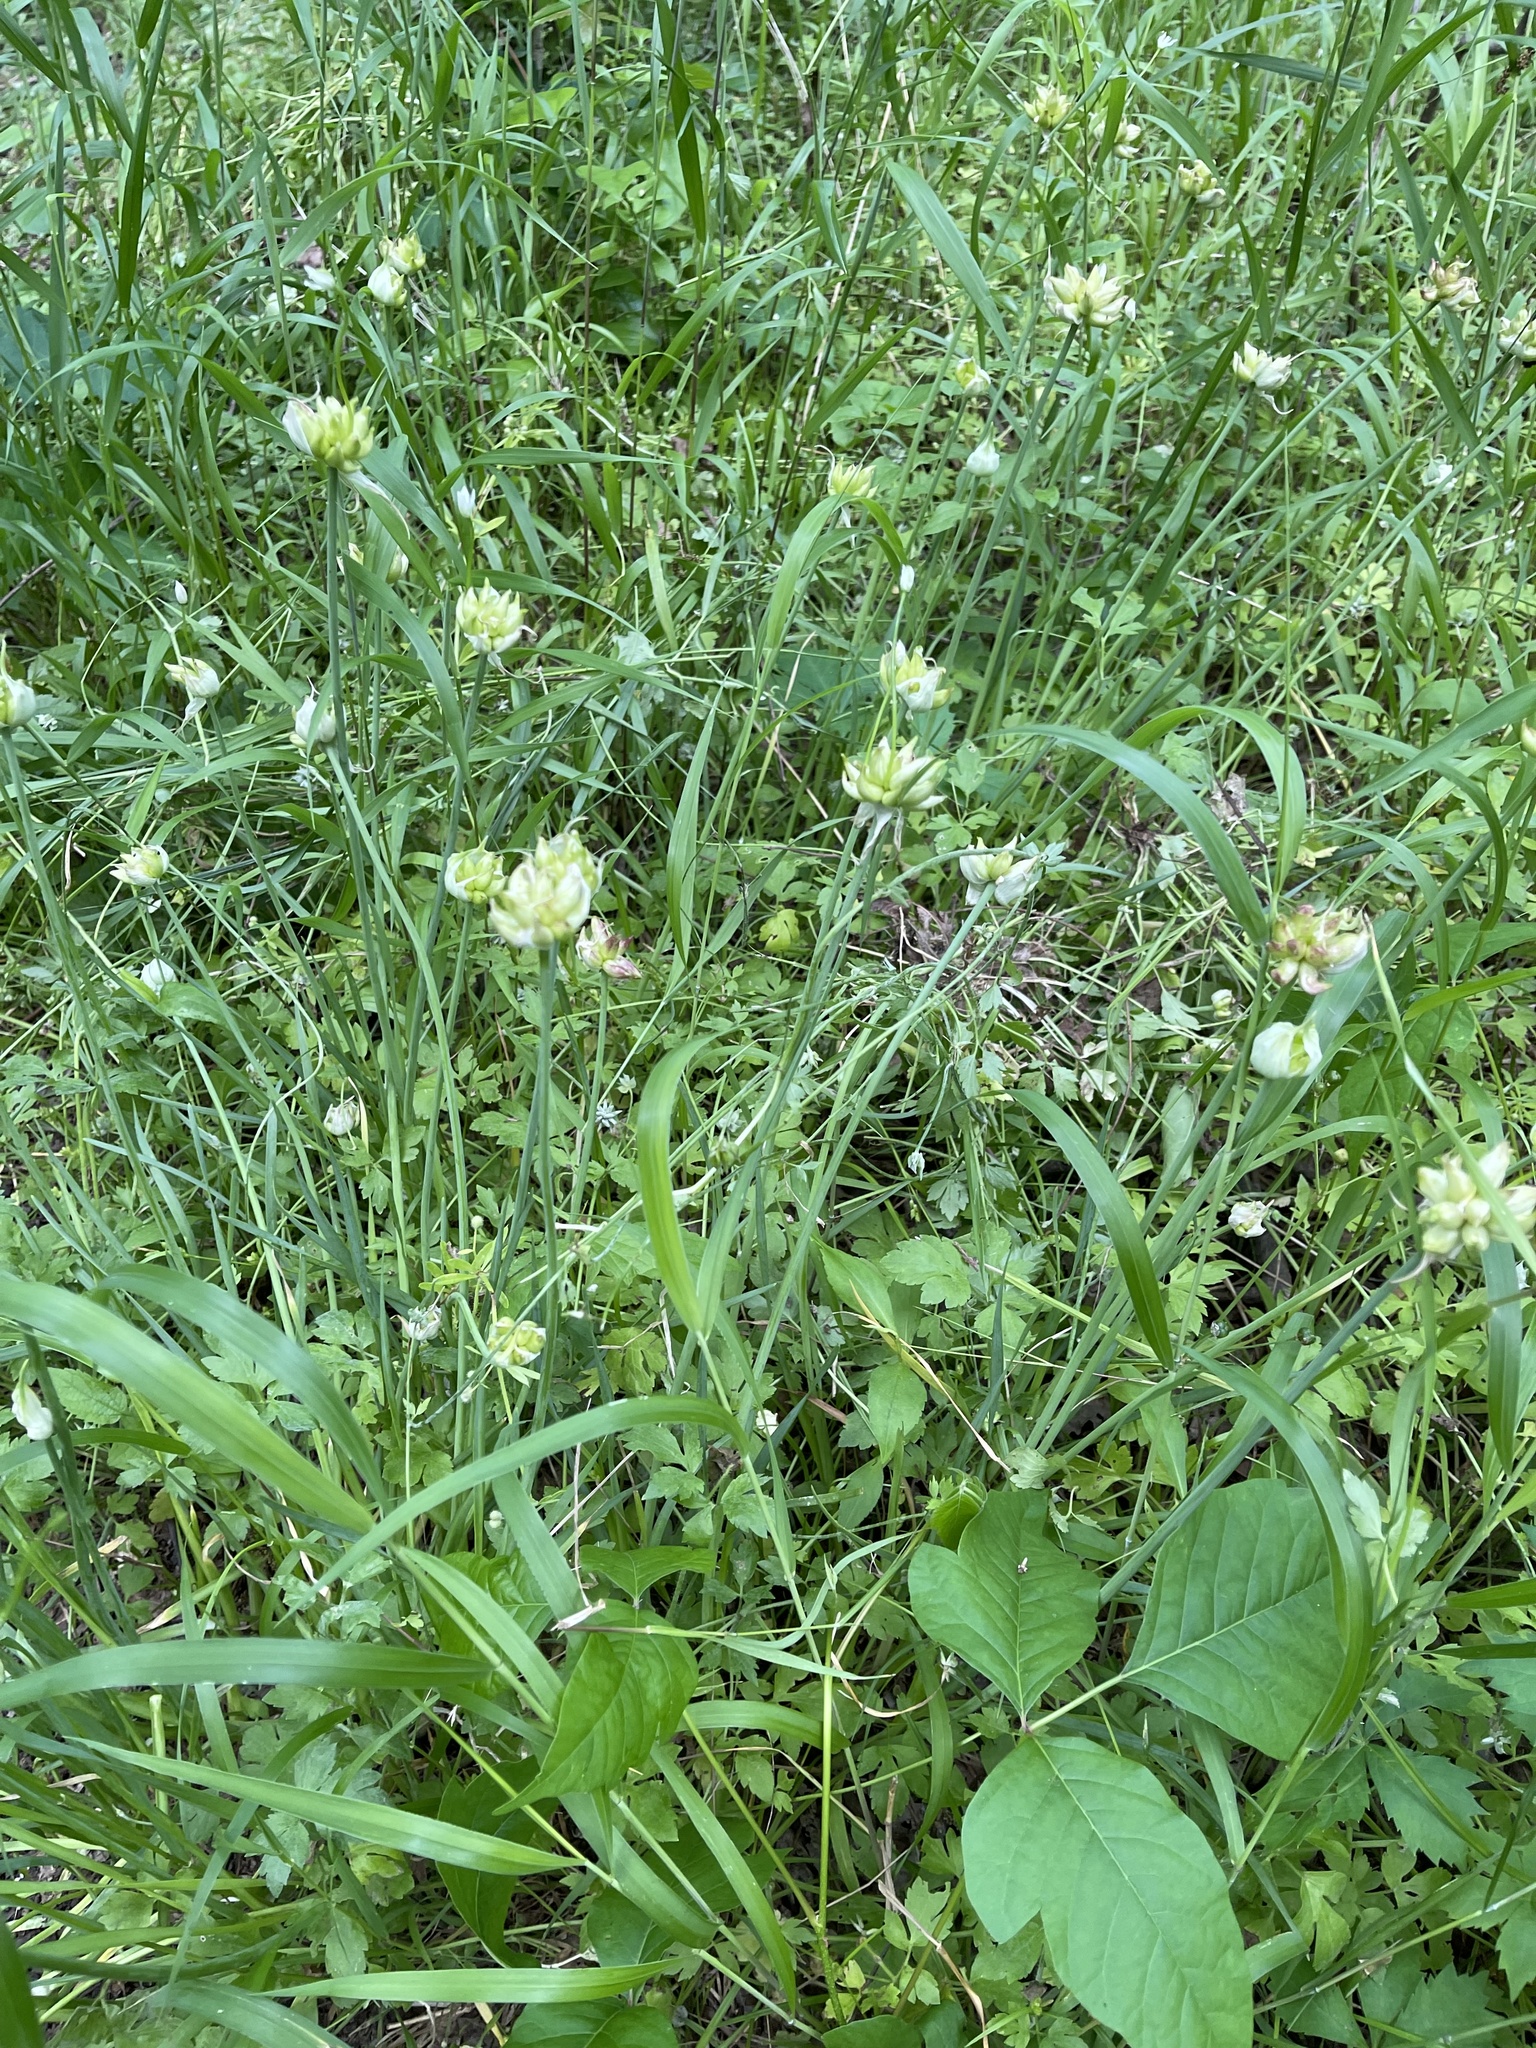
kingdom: Plantae
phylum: Tracheophyta
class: Liliopsida
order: Asparagales
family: Amaryllidaceae
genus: Allium
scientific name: Allium canadense
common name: Meadow garlic
